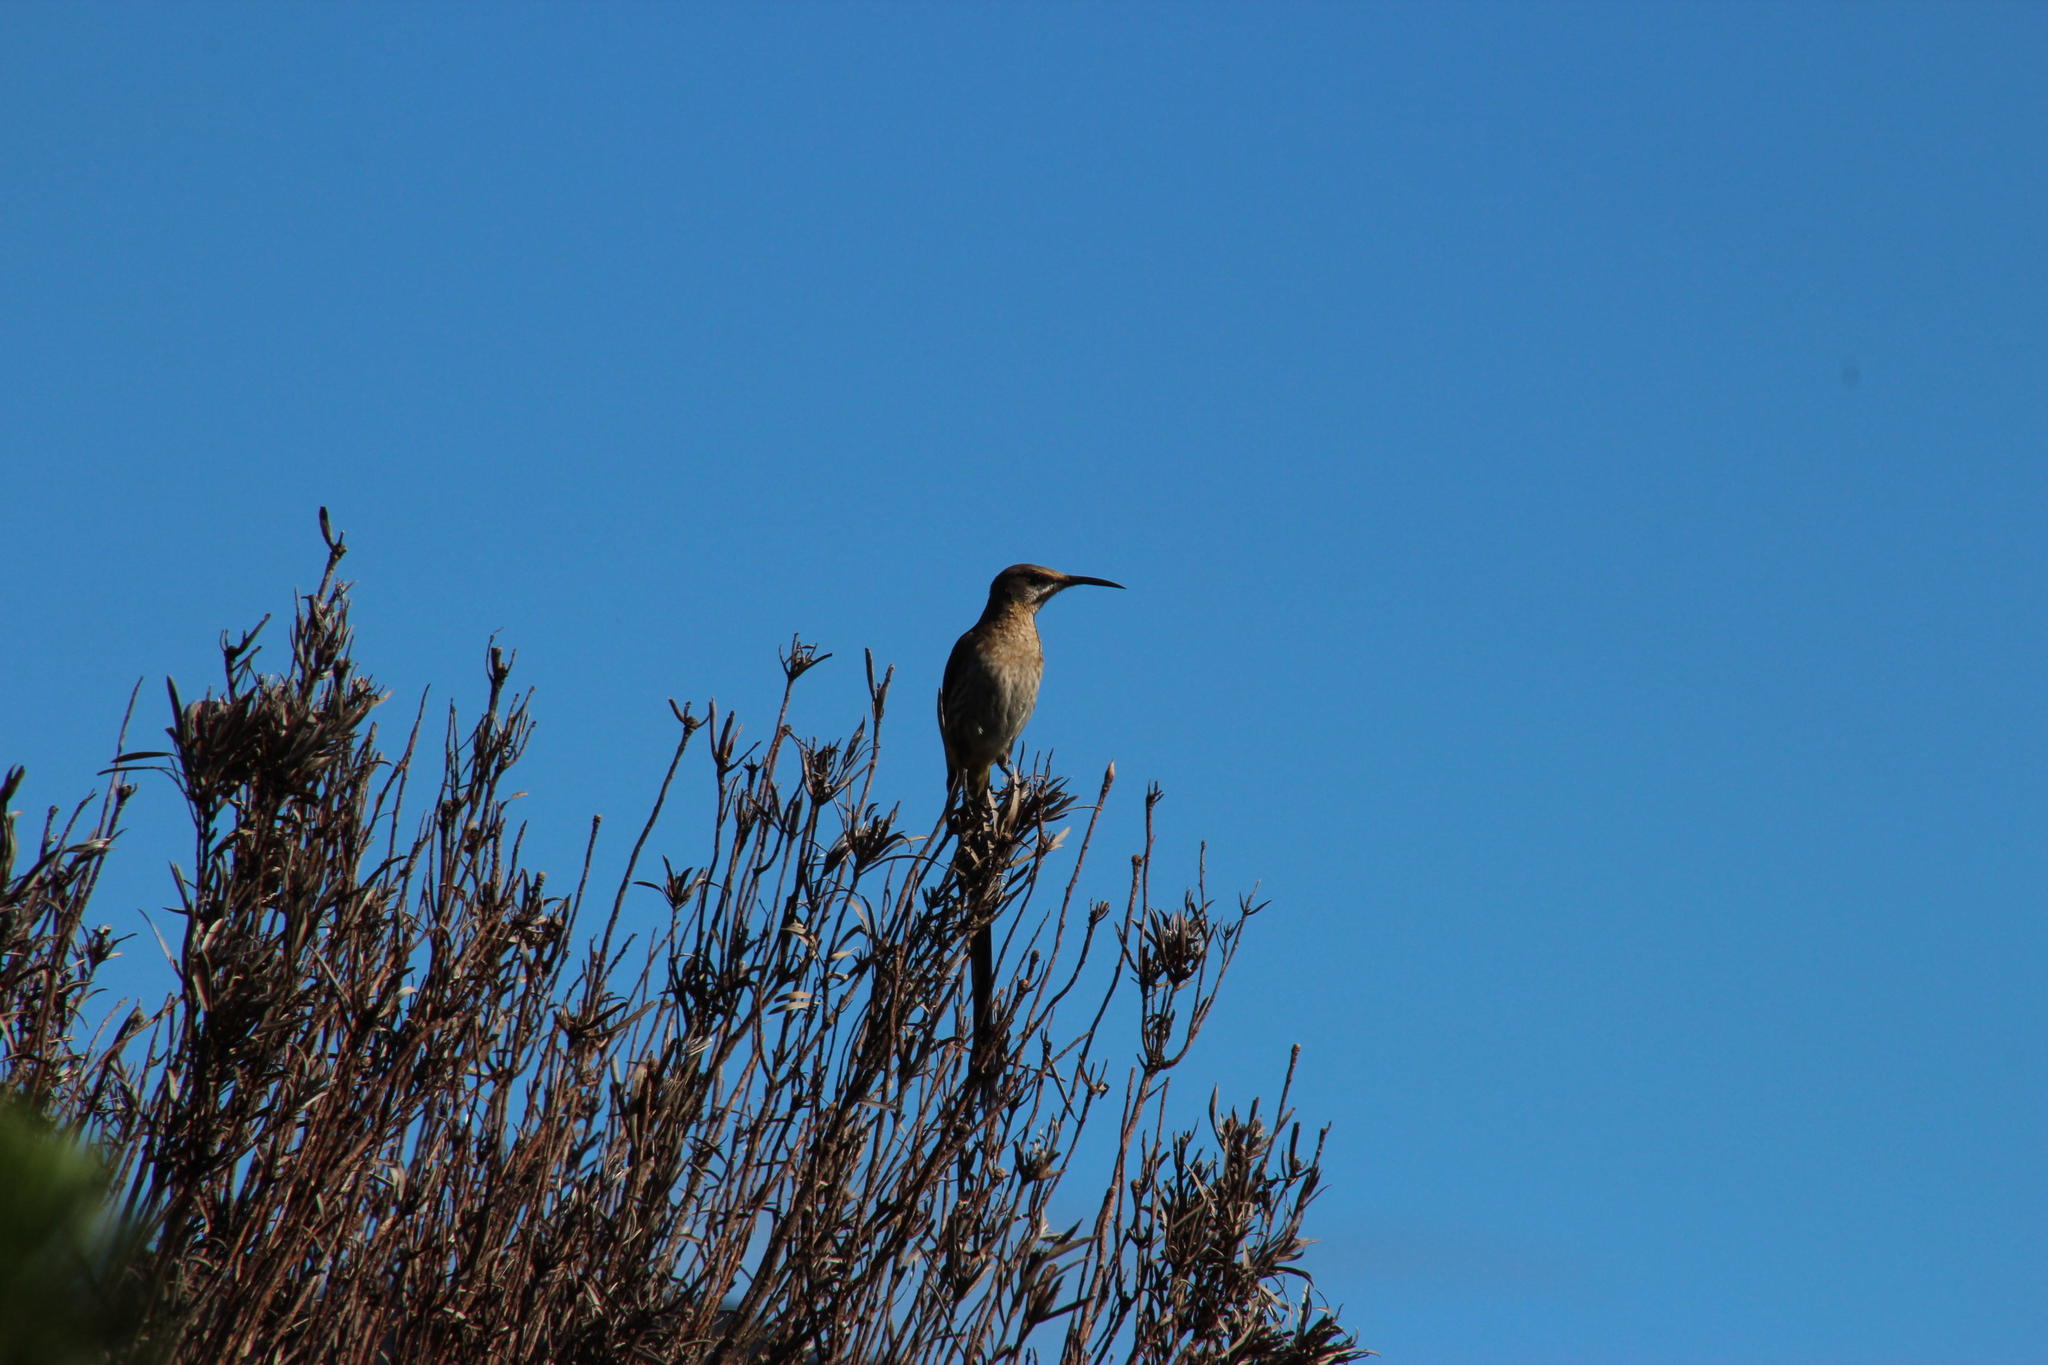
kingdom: Animalia
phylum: Chordata
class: Aves
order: Passeriformes
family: Promeropidae
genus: Promerops
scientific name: Promerops cafer
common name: Cape sugarbird
